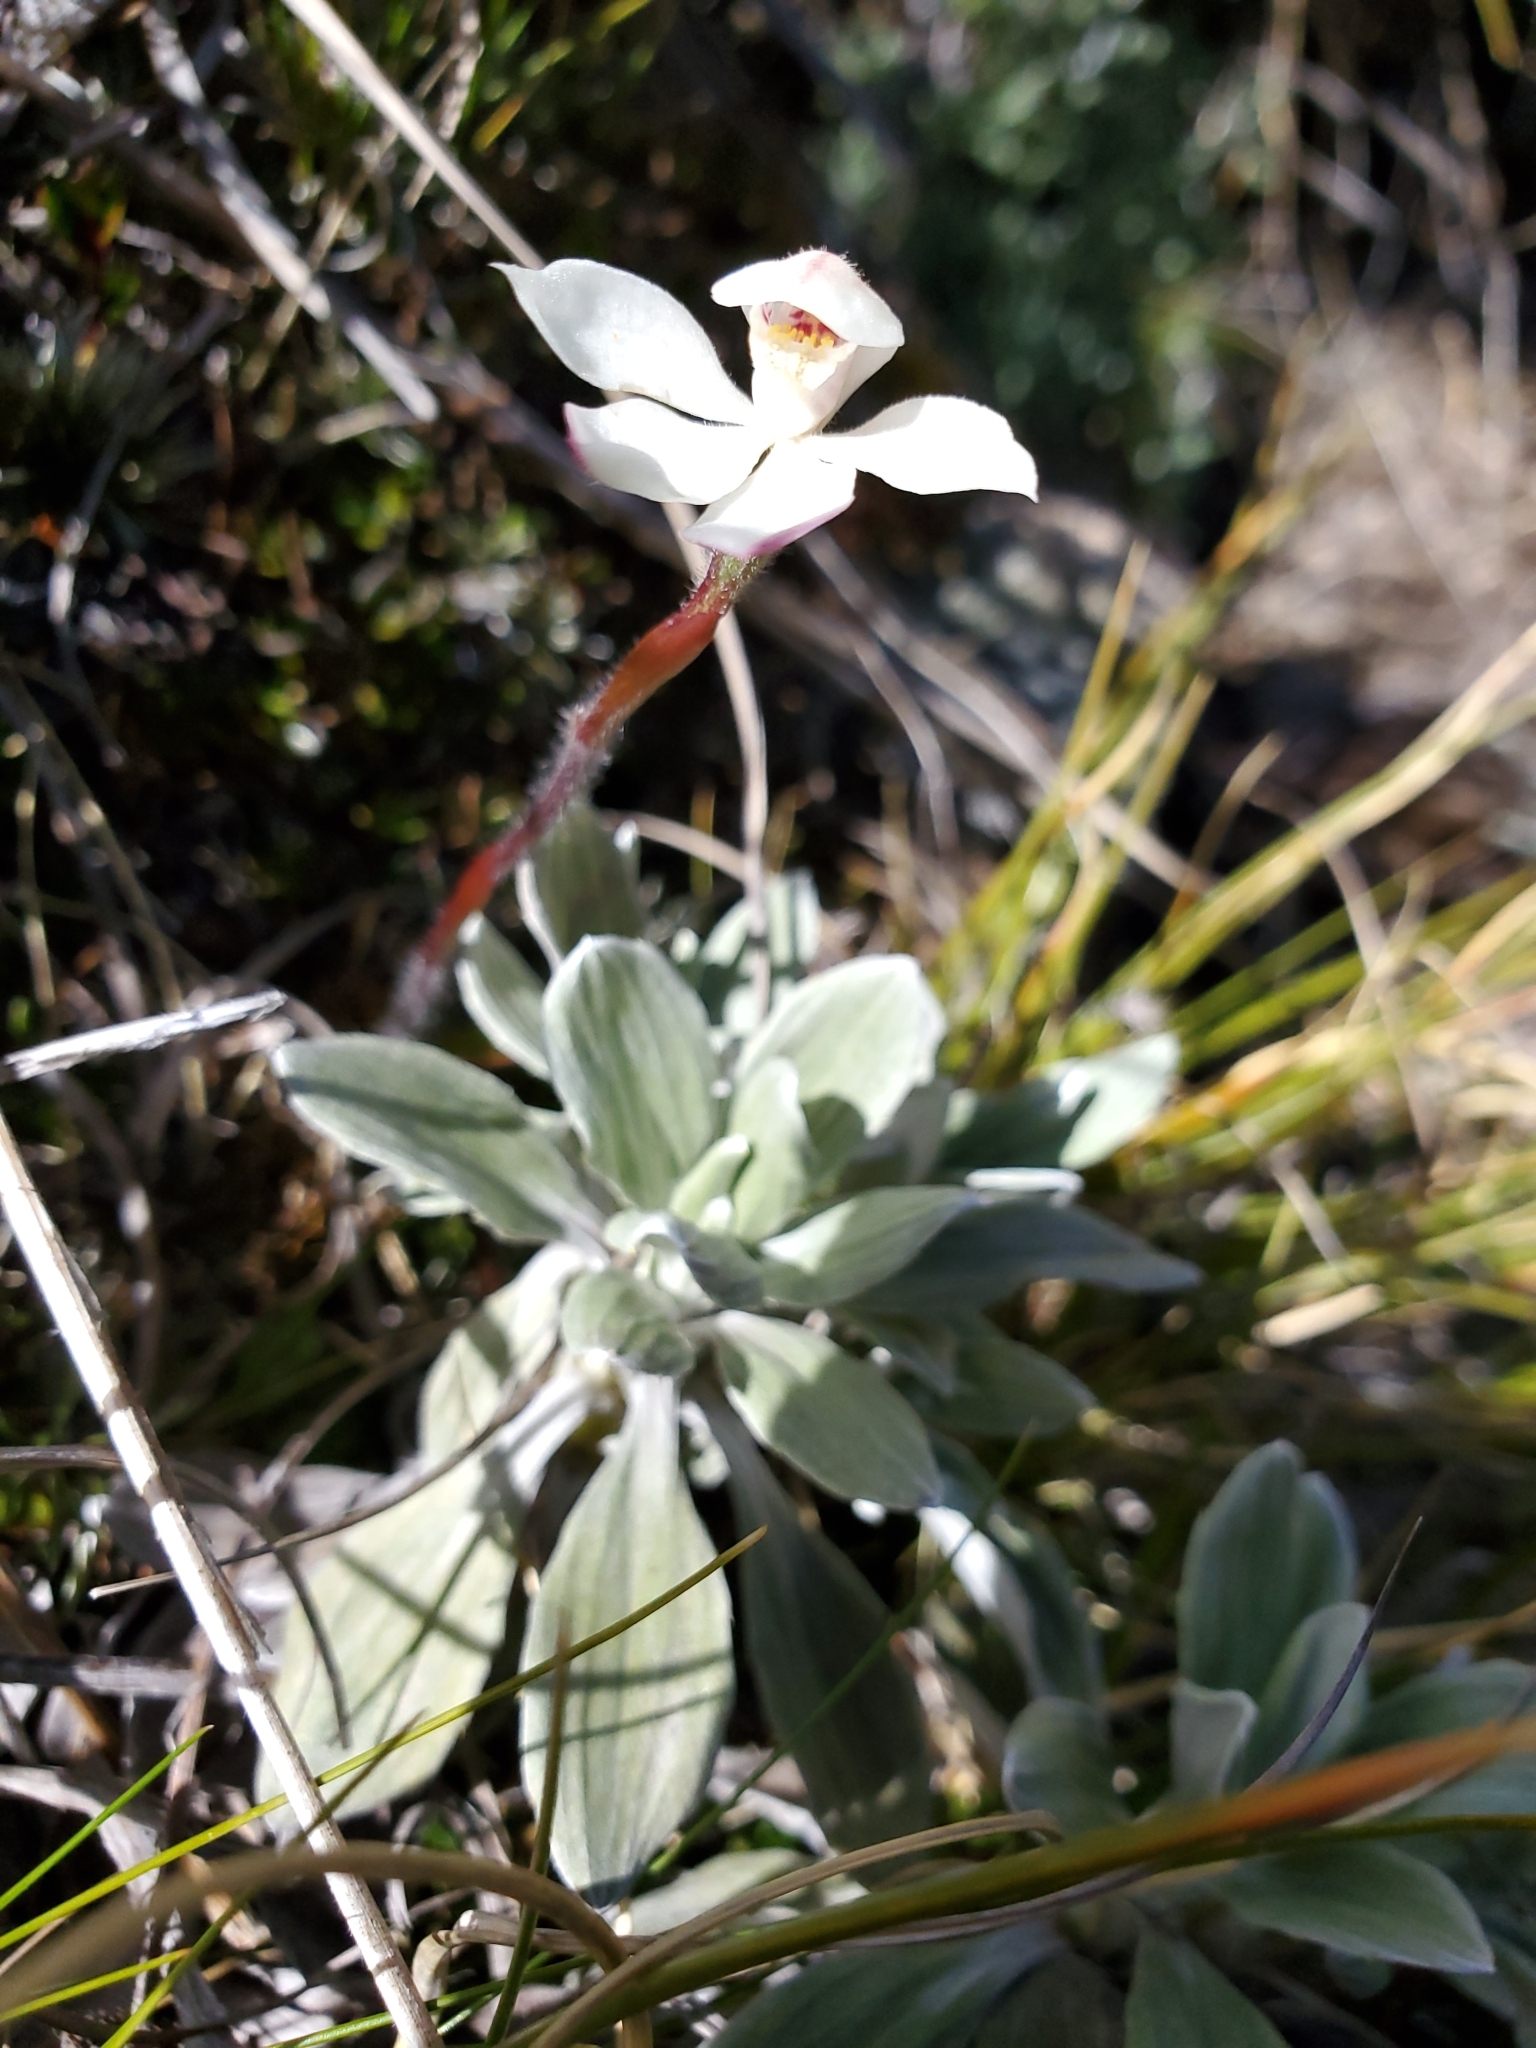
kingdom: Plantae
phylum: Tracheophyta
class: Liliopsida
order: Asparagales
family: Orchidaceae
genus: Caladenia
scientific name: Caladenia lyallii
